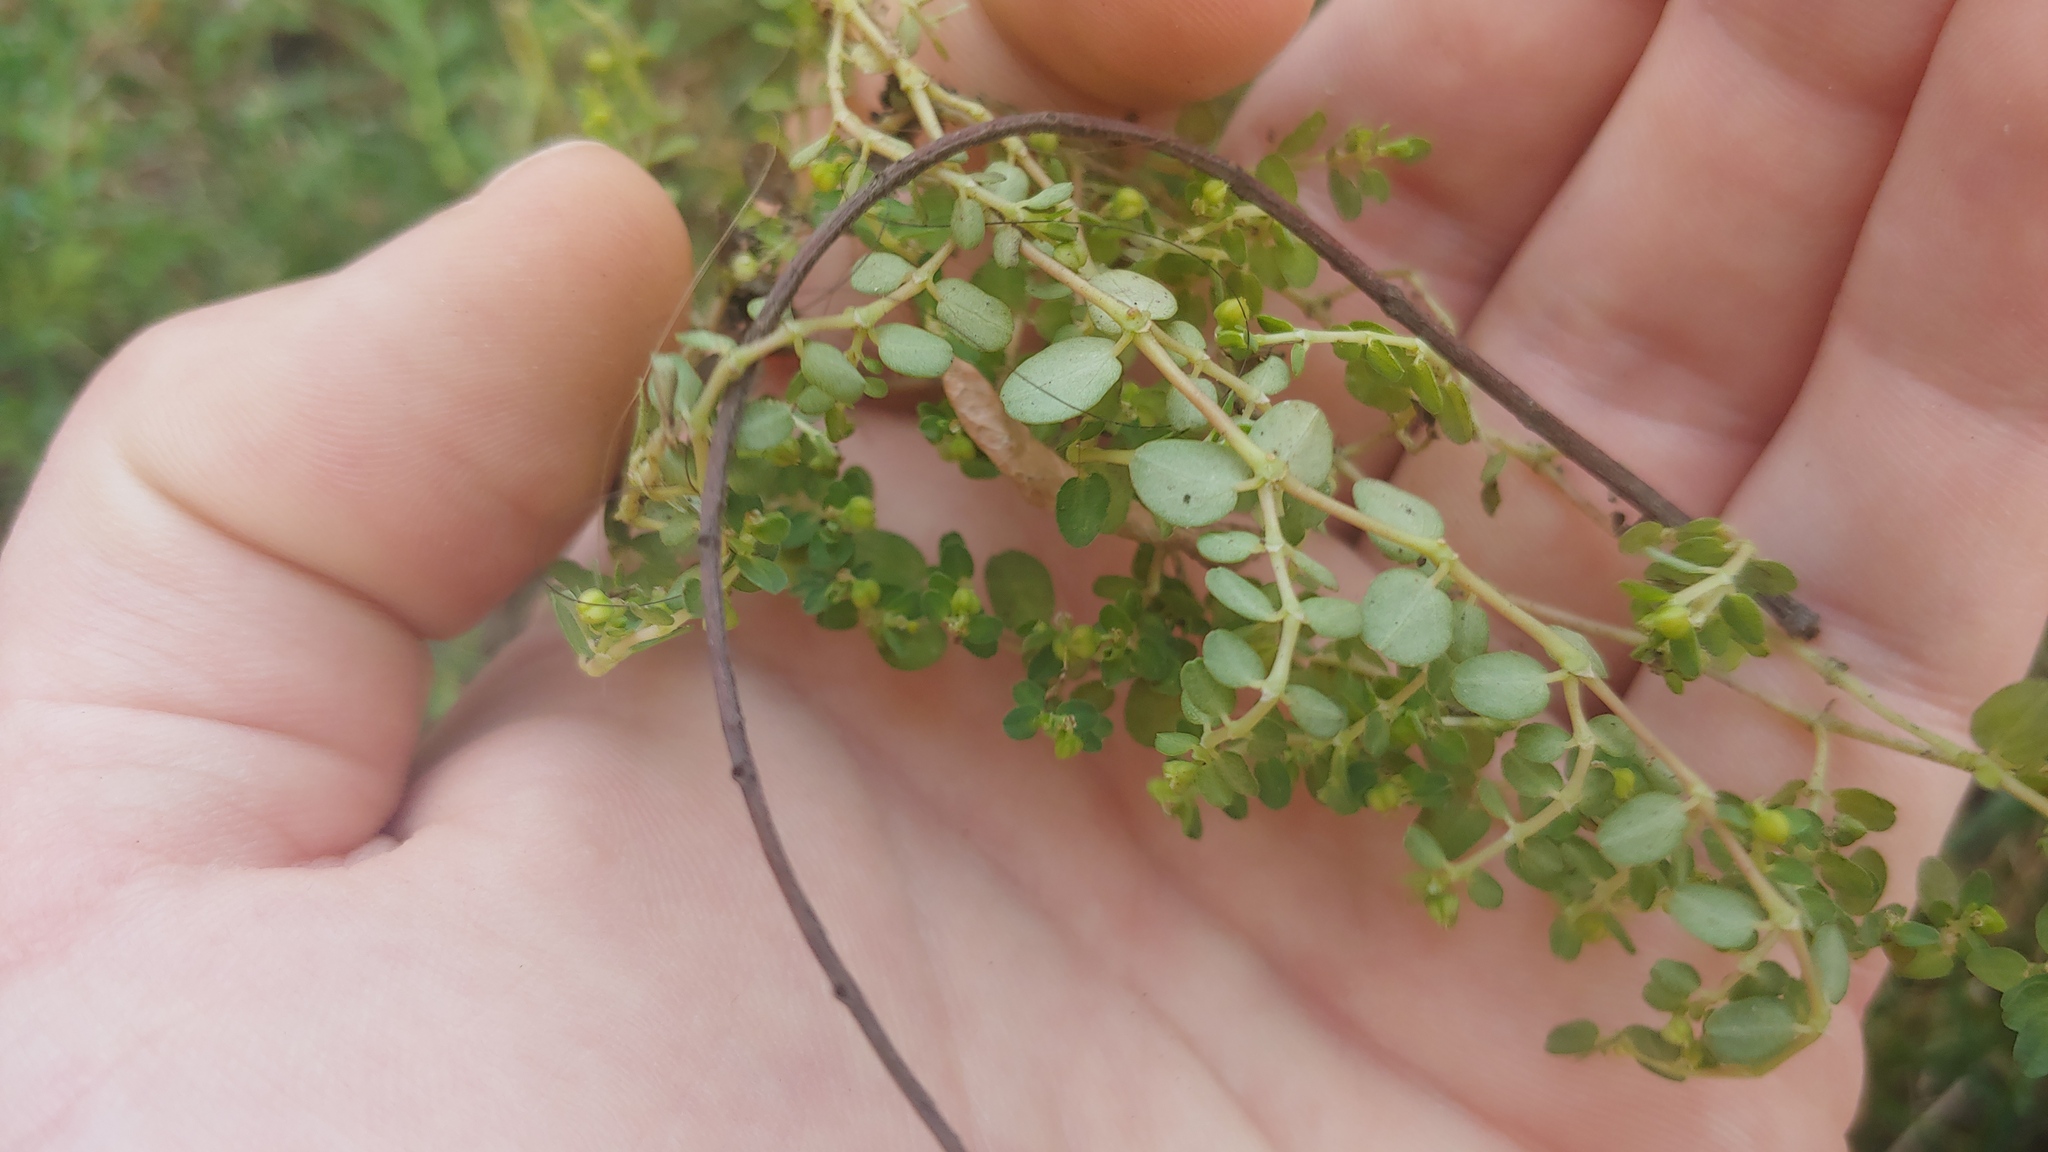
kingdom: Plantae
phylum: Tracheophyta
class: Magnoliopsida
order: Malpighiales
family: Euphorbiaceae
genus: Euphorbia
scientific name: Euphorbia serpens
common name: Matted sandmat
